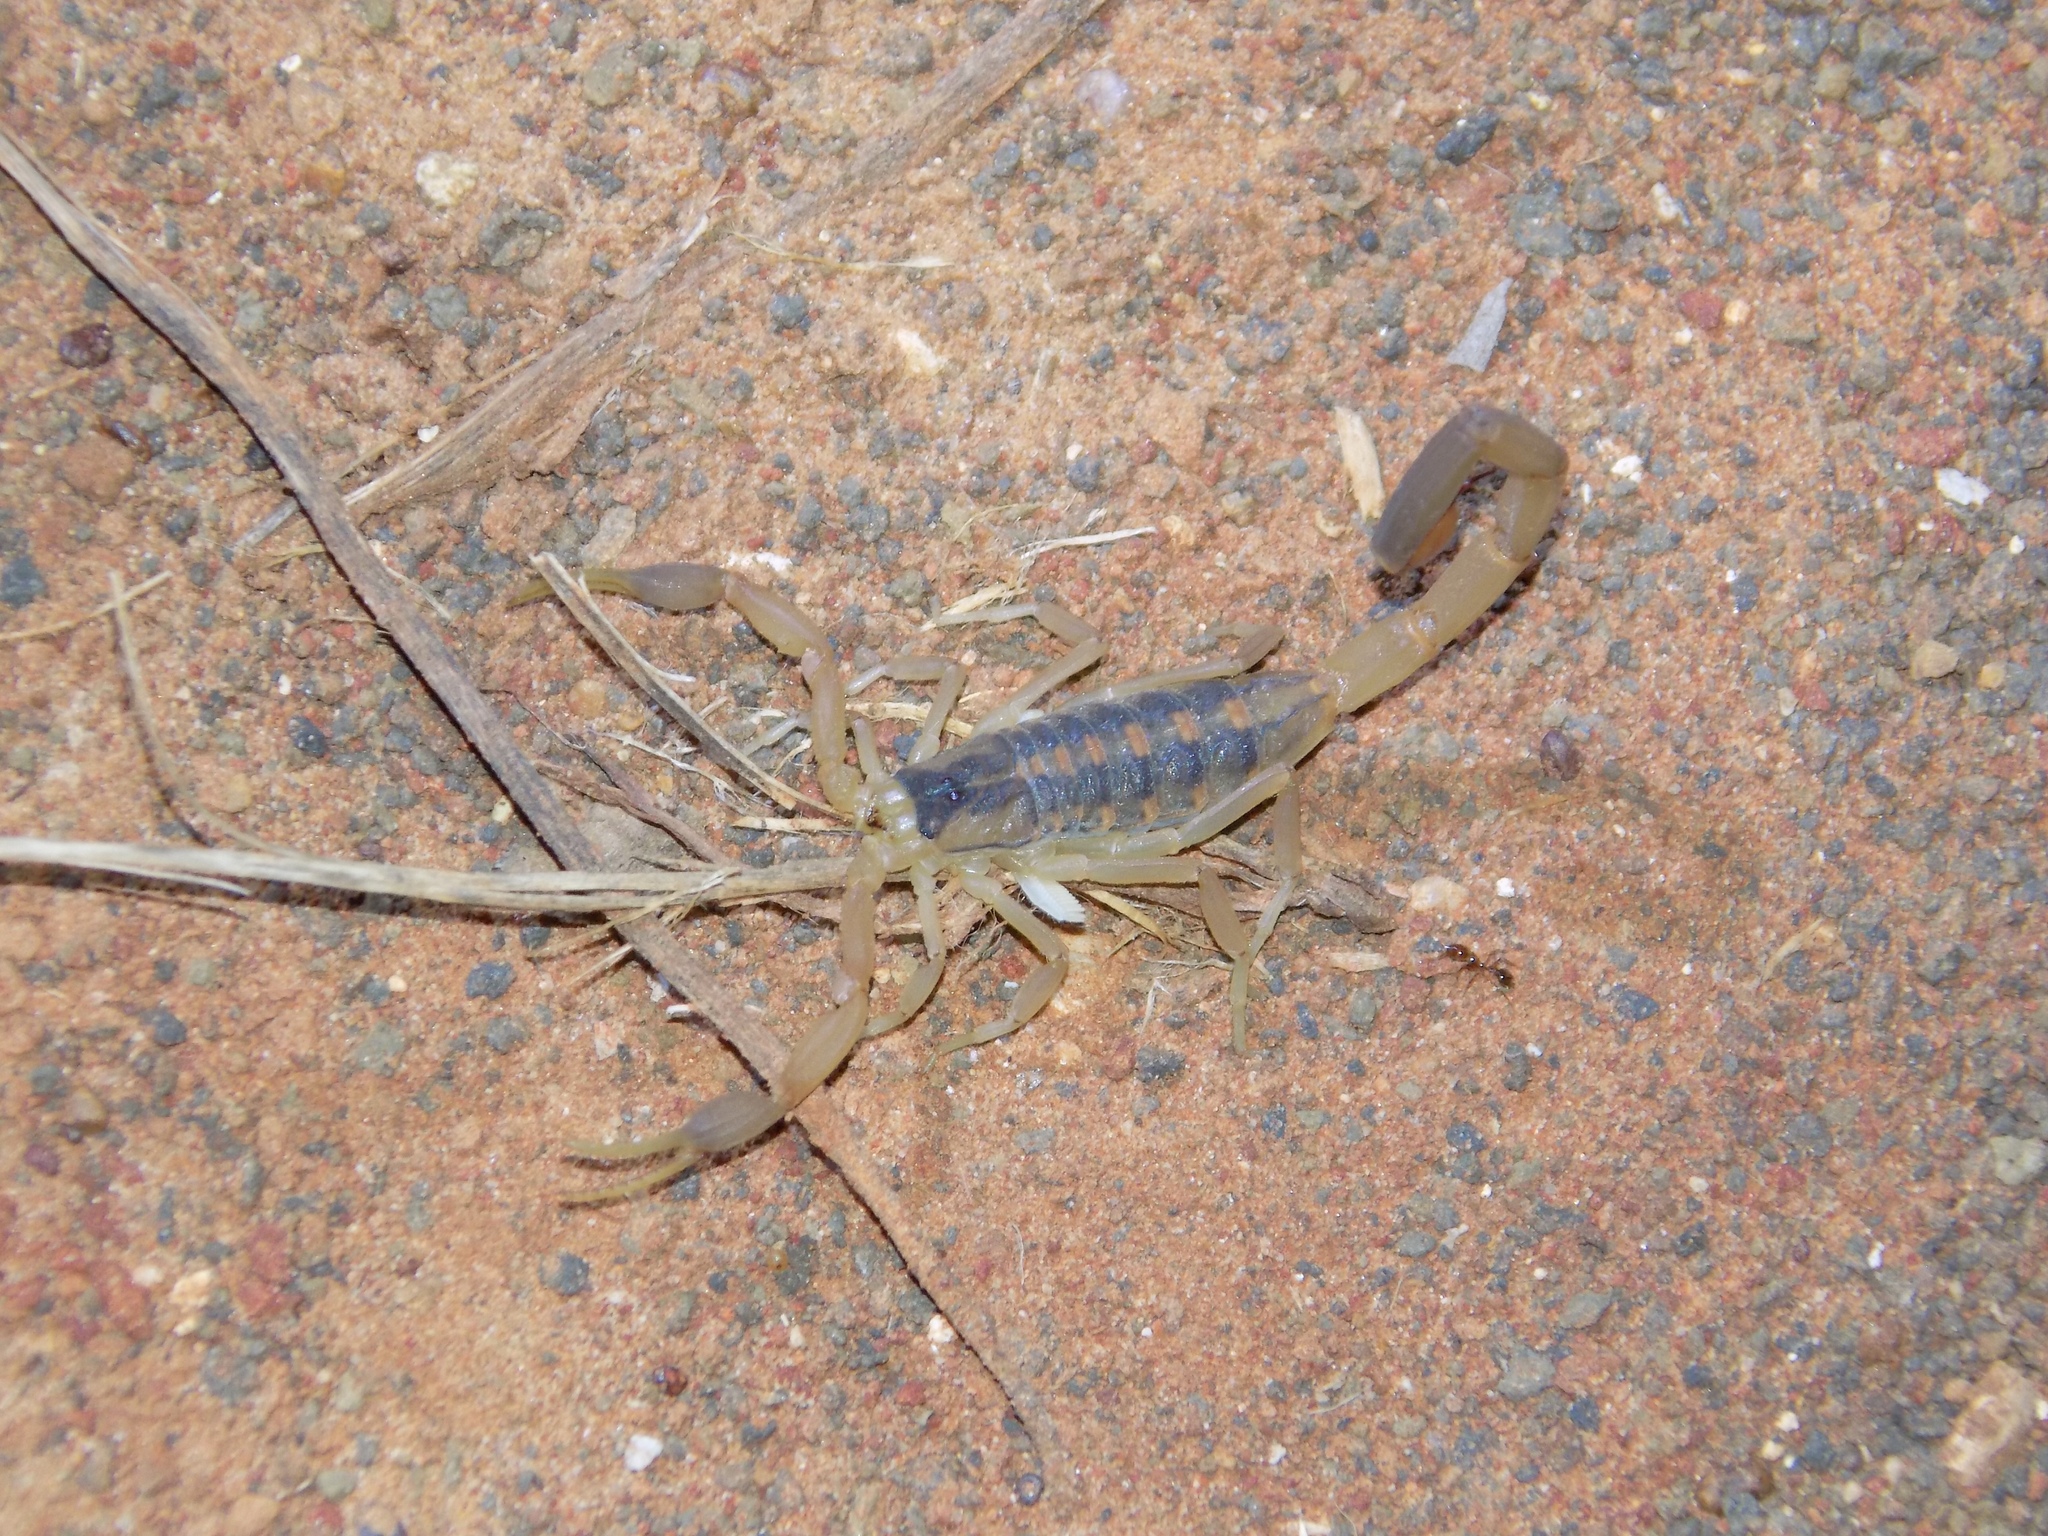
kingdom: Animalia
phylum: Arthropoda
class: Arachnida
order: Scorpiones
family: Buthidae
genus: Centruroides
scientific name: Centruroides vittatus
